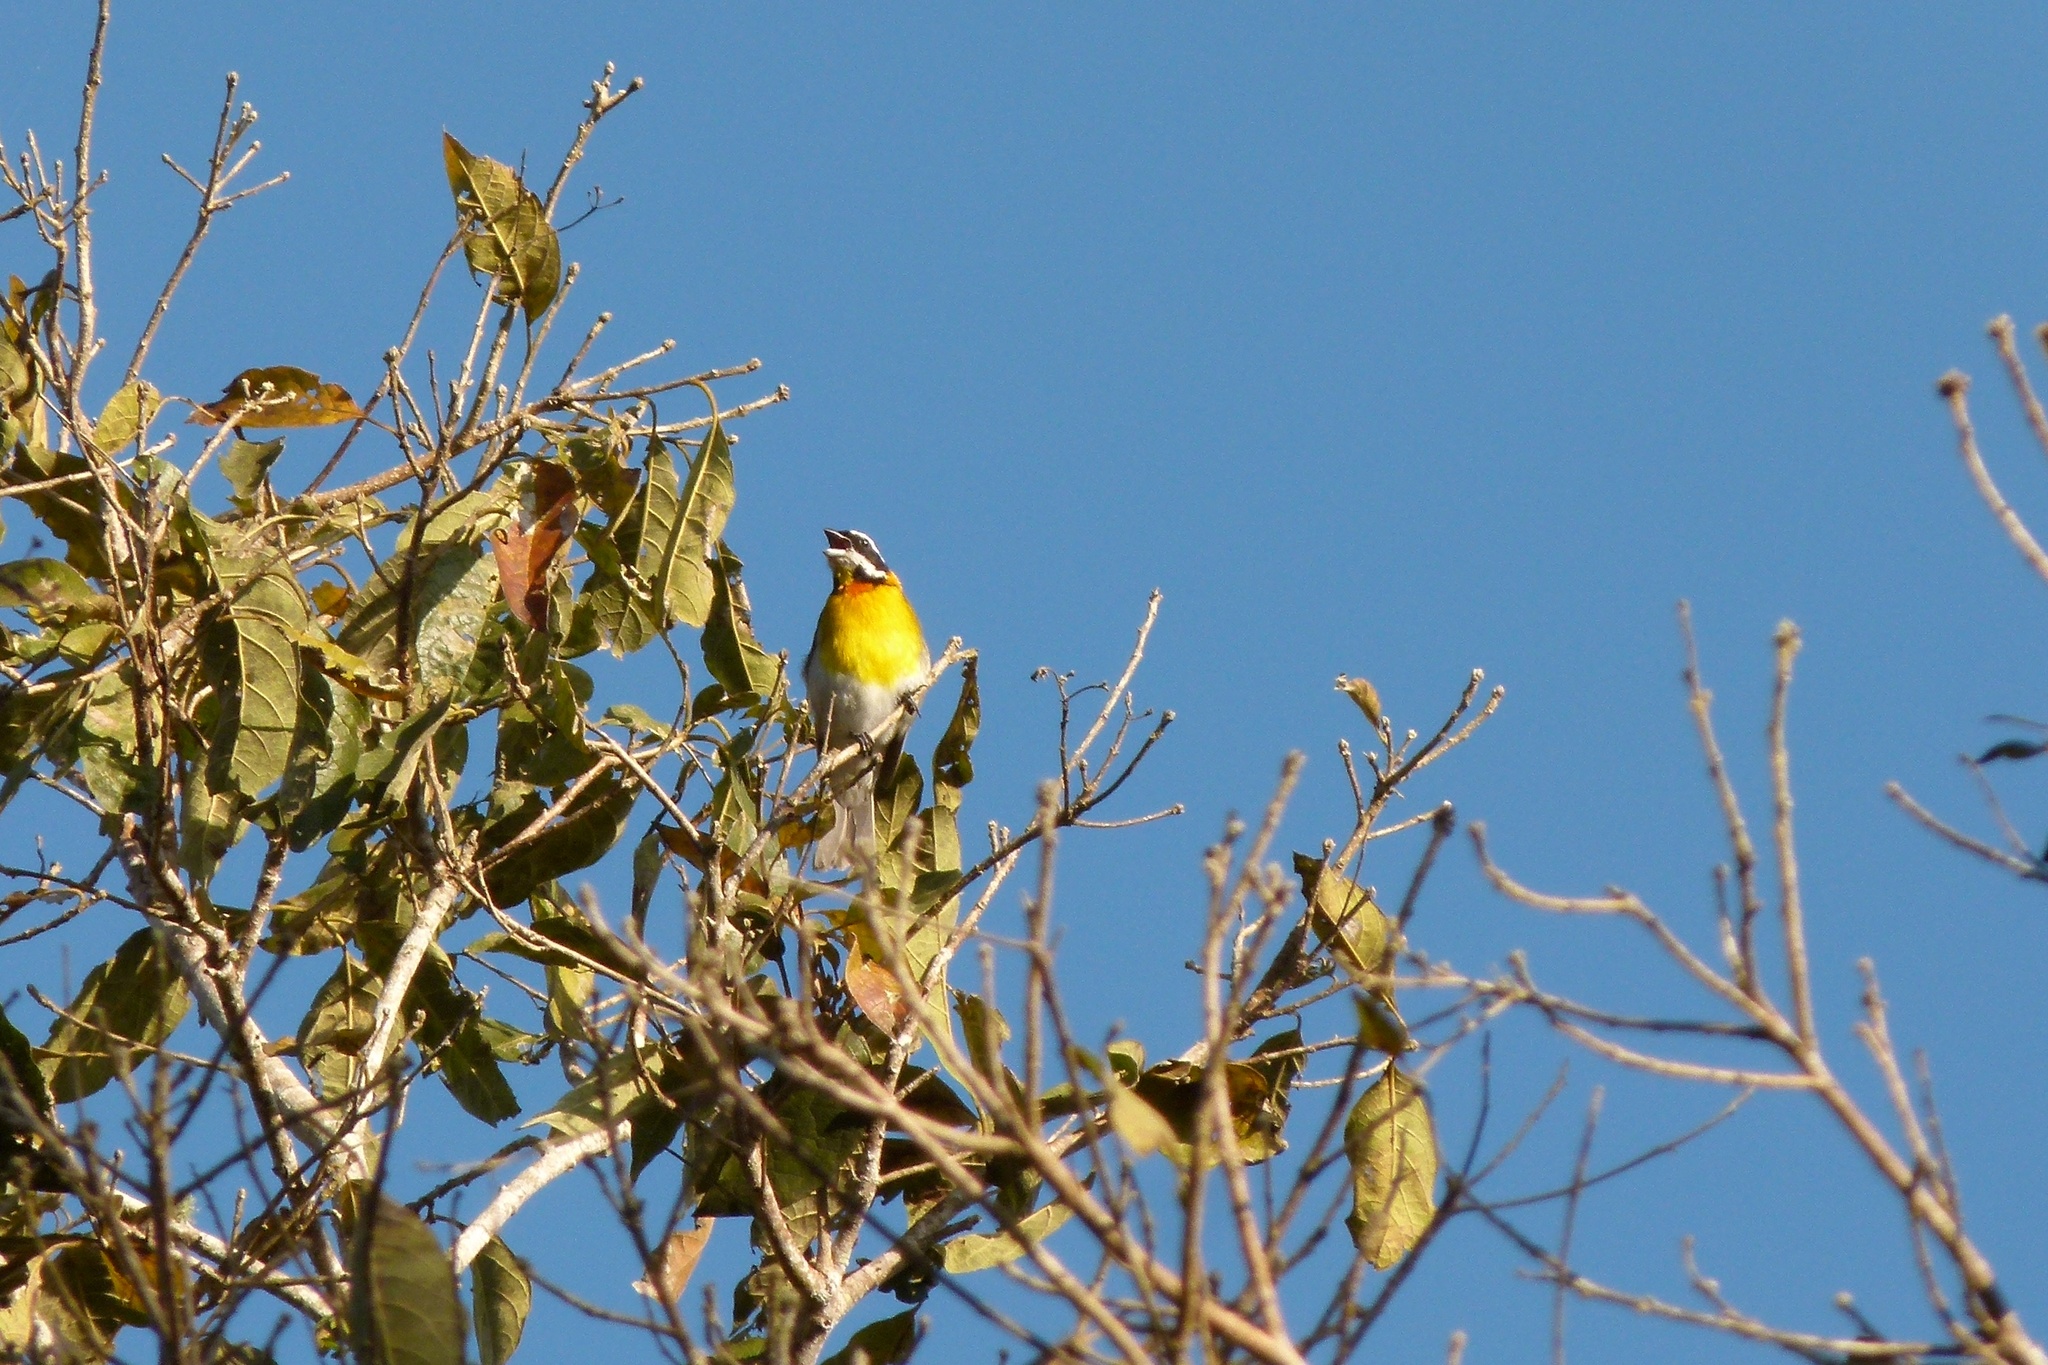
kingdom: Animalia
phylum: Chordata
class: Aves
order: Passeriformes
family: Spindalidae
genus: Spindalis
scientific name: Spindalis portoricensis
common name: Puerto rican spindalis
